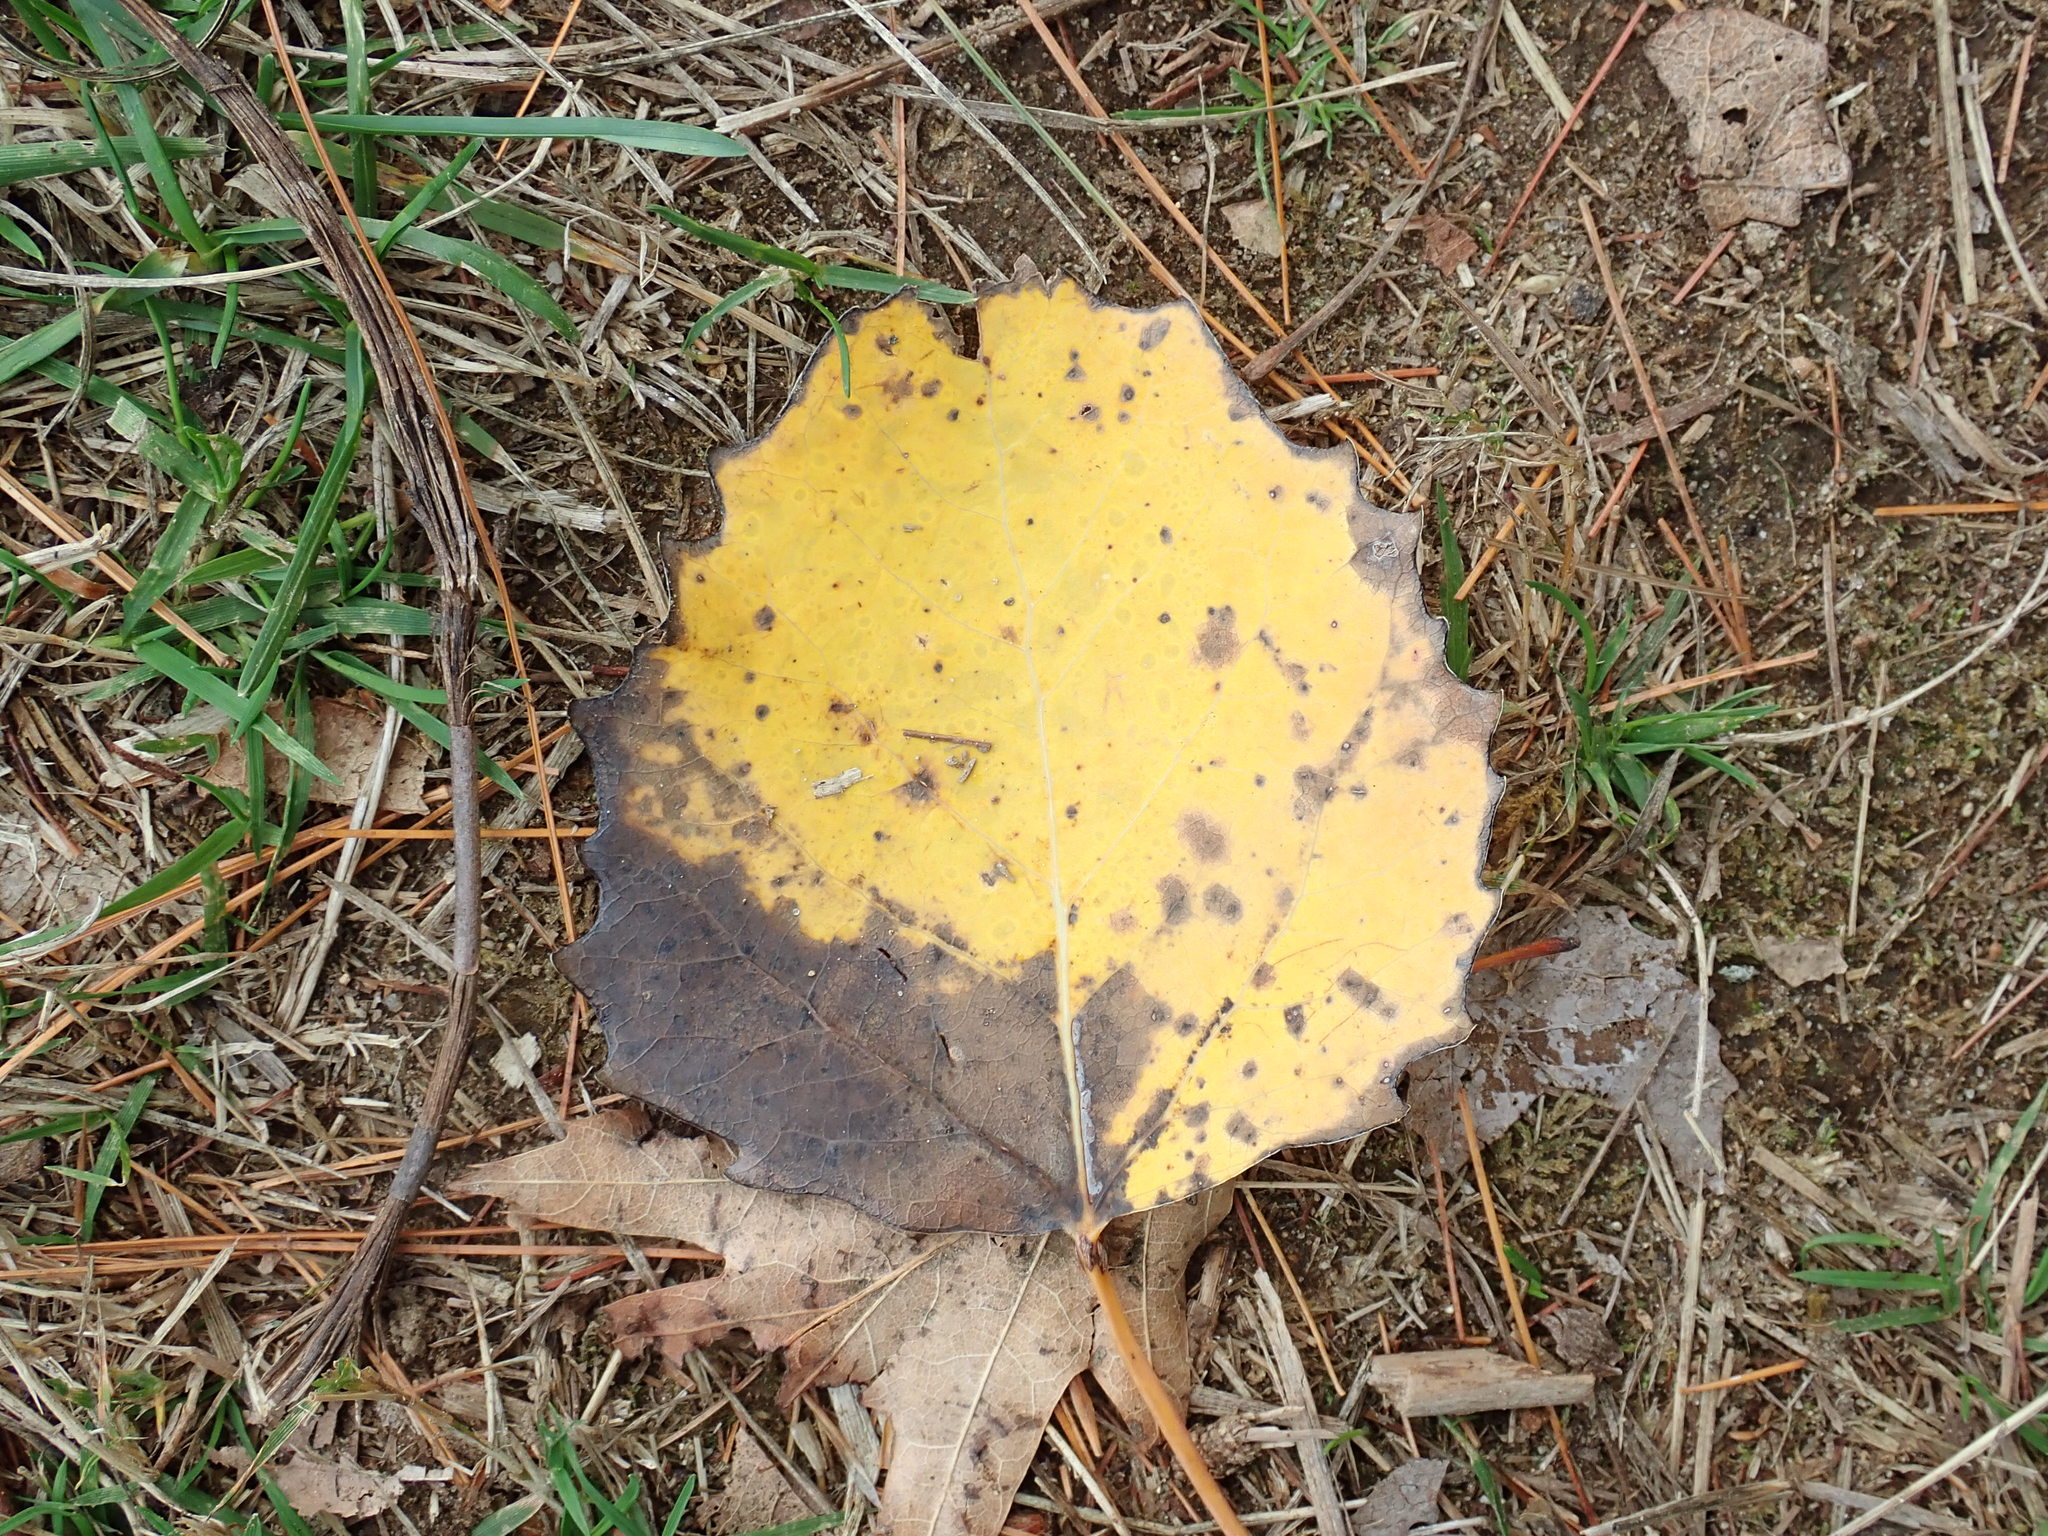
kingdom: Plantae
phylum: Tracheophyta
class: Magnoliopsida
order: Malpighiales
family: Salicaceae
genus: Populus
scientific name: Populus grandidentata
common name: Bigtooth aspen
